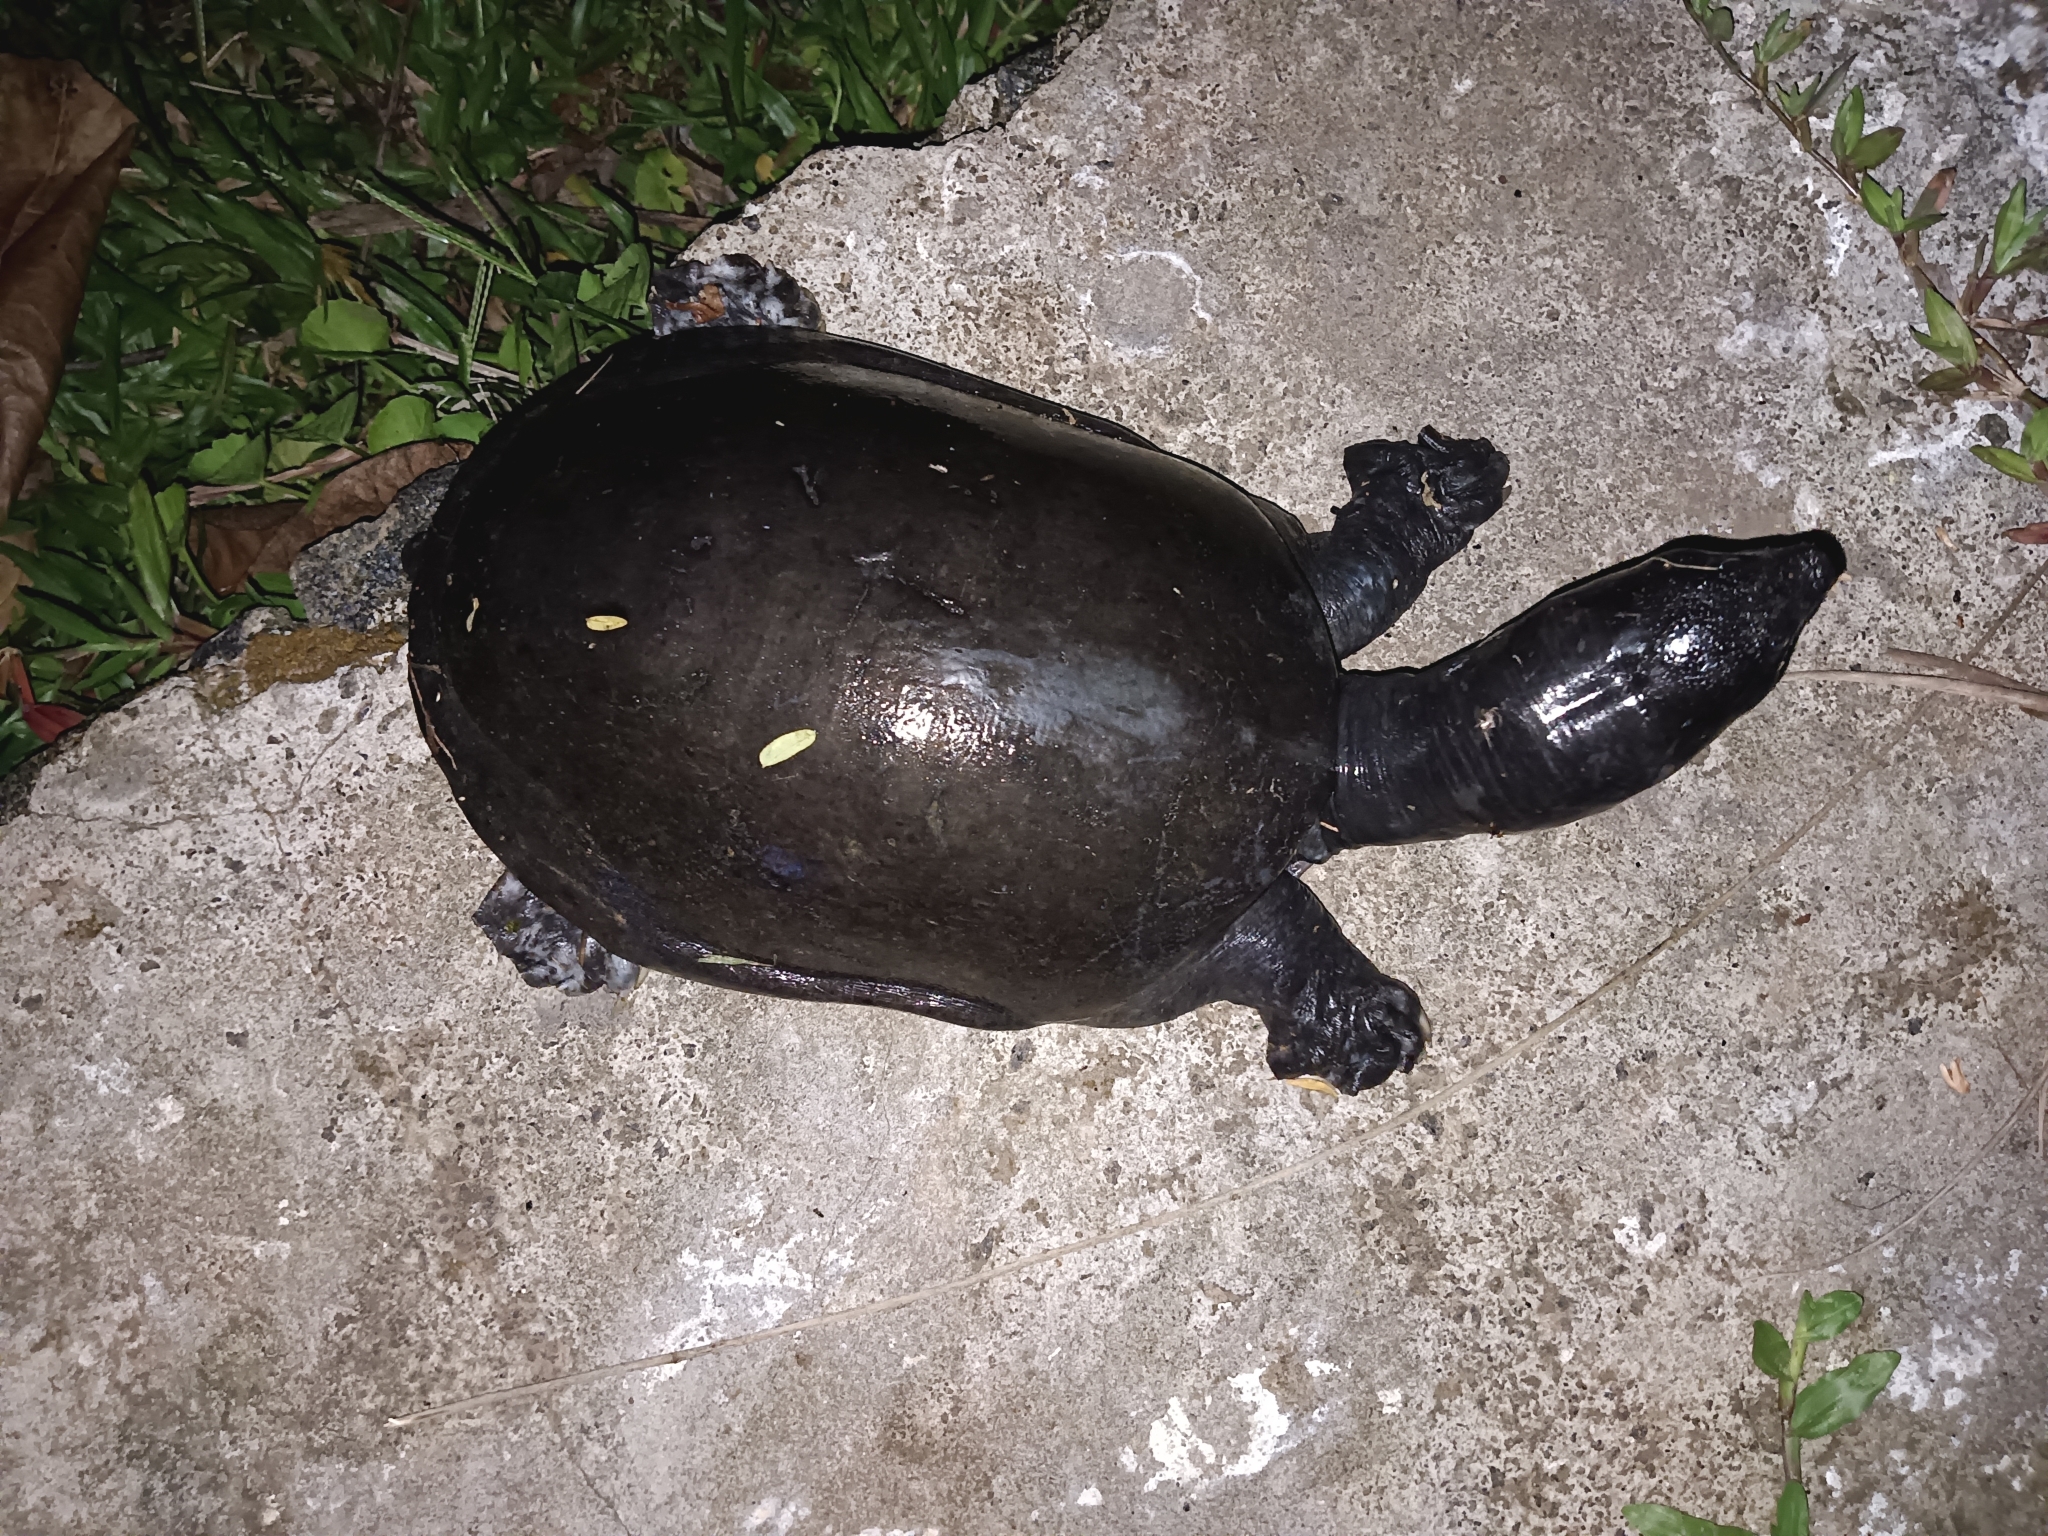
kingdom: Animalia
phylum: Chordata
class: Testudines
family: Trionychidae
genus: Lissemys
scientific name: Lissemys punctata
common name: Indian flap-shelled turtle
